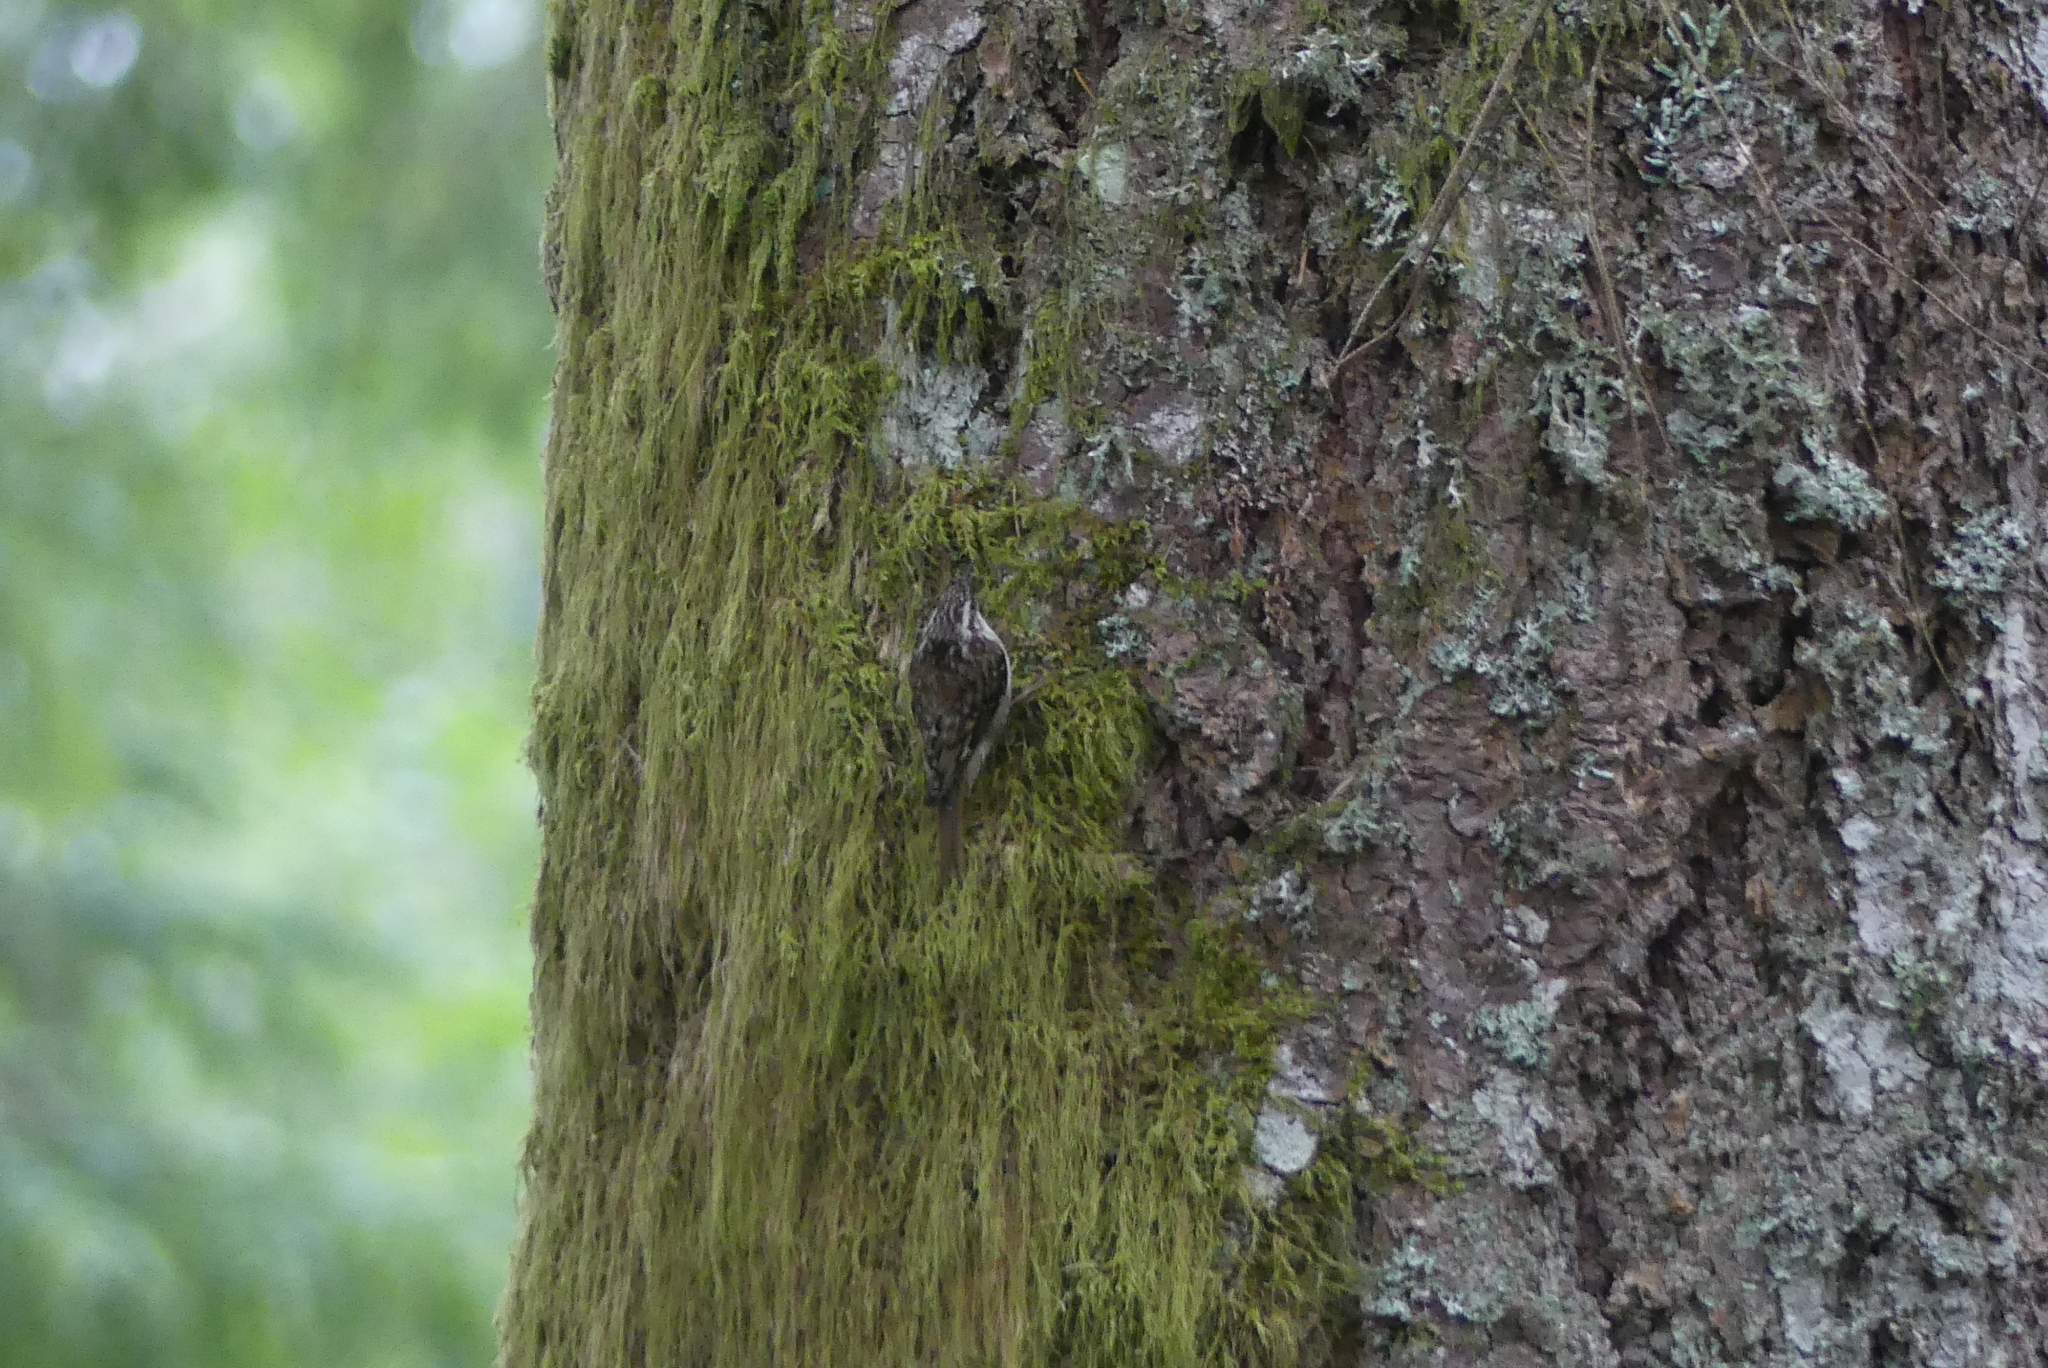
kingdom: Animalia
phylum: Chordata
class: Aves
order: Passeriformes
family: Certhiidae
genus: Certhia
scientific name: Certhia americana
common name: Brown creeper
